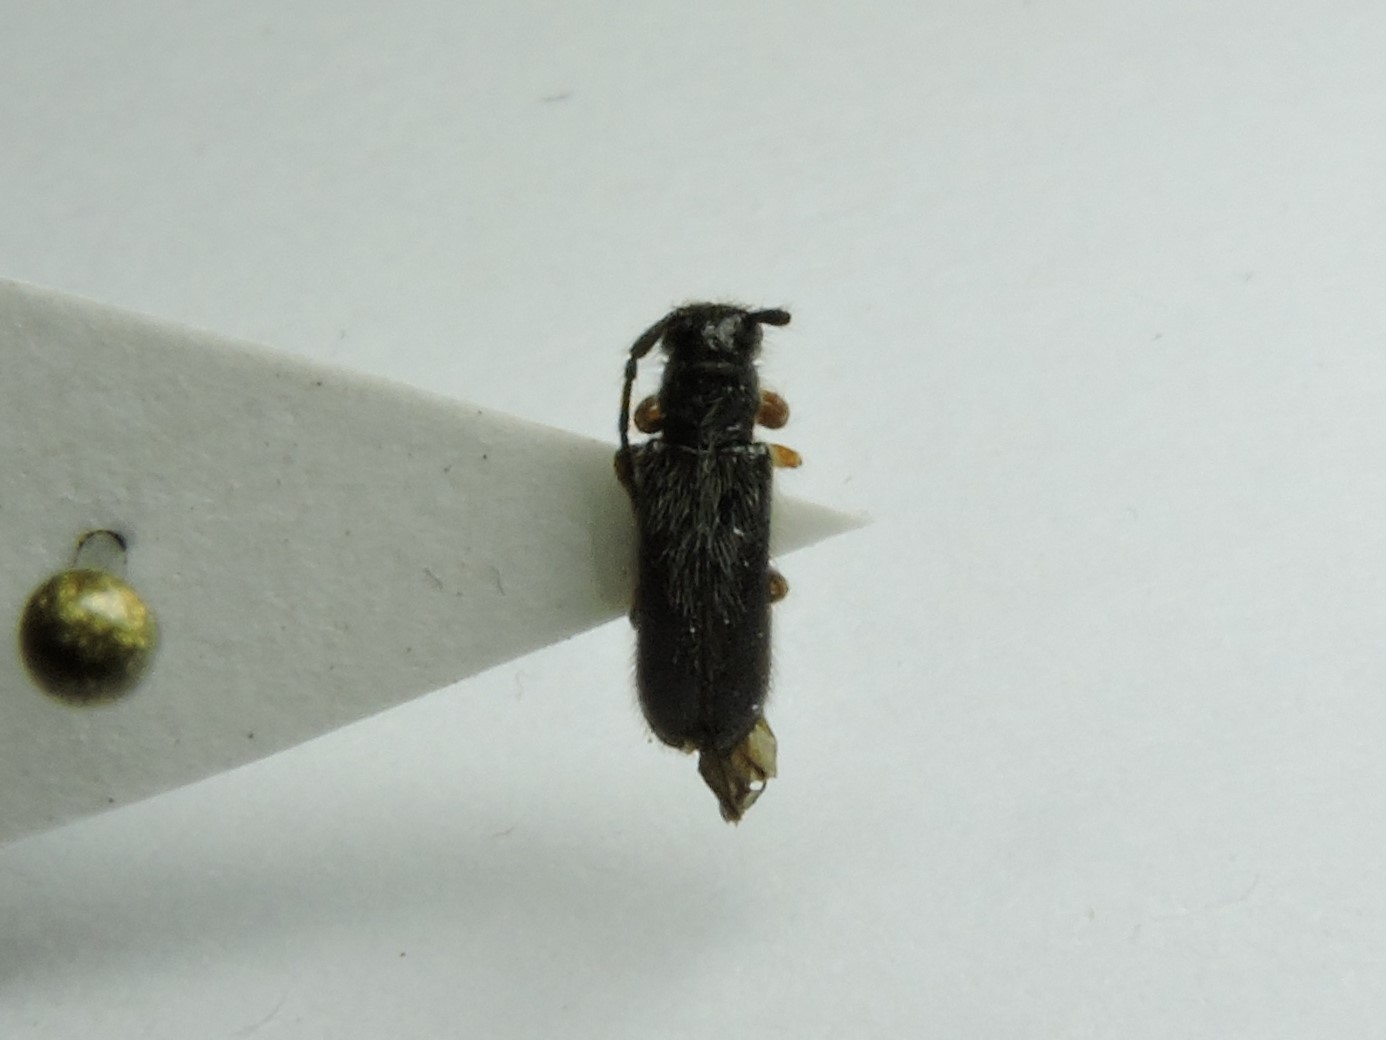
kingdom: Animalia
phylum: Arthropoda
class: Insecta
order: Coleoptera
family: Cerambycidae
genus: Tetrops
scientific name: Tetrops gilvipes
